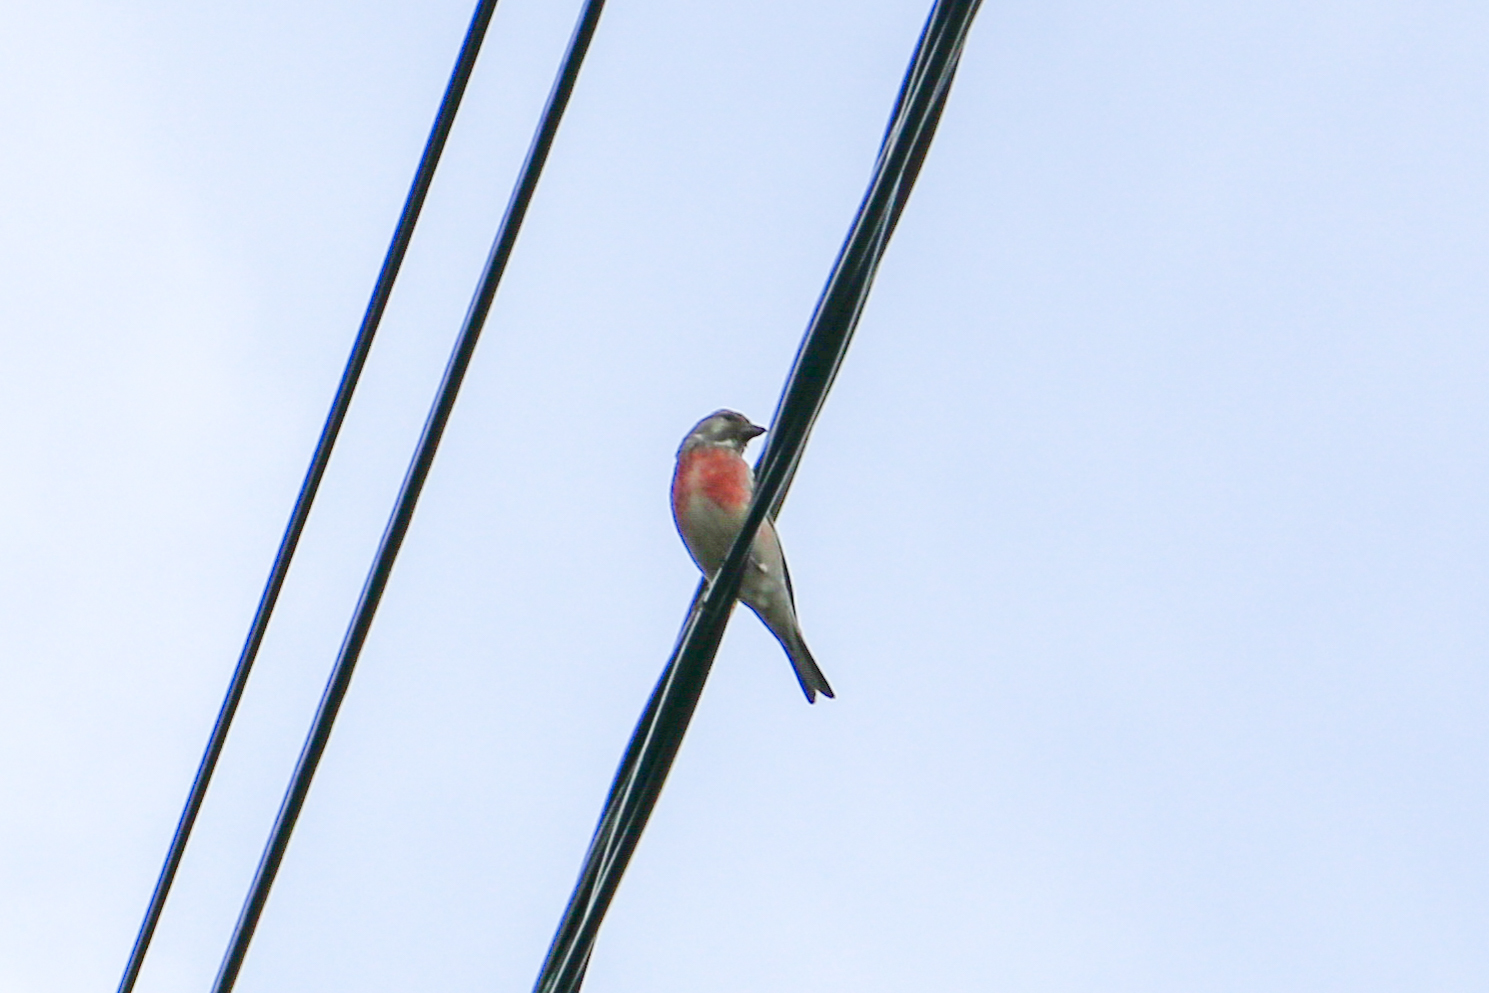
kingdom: Animalia
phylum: Chordata
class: Aves
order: Passeriformes
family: Fringillidae
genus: Linaria
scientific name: Linaria cannabina
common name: Common linnet
